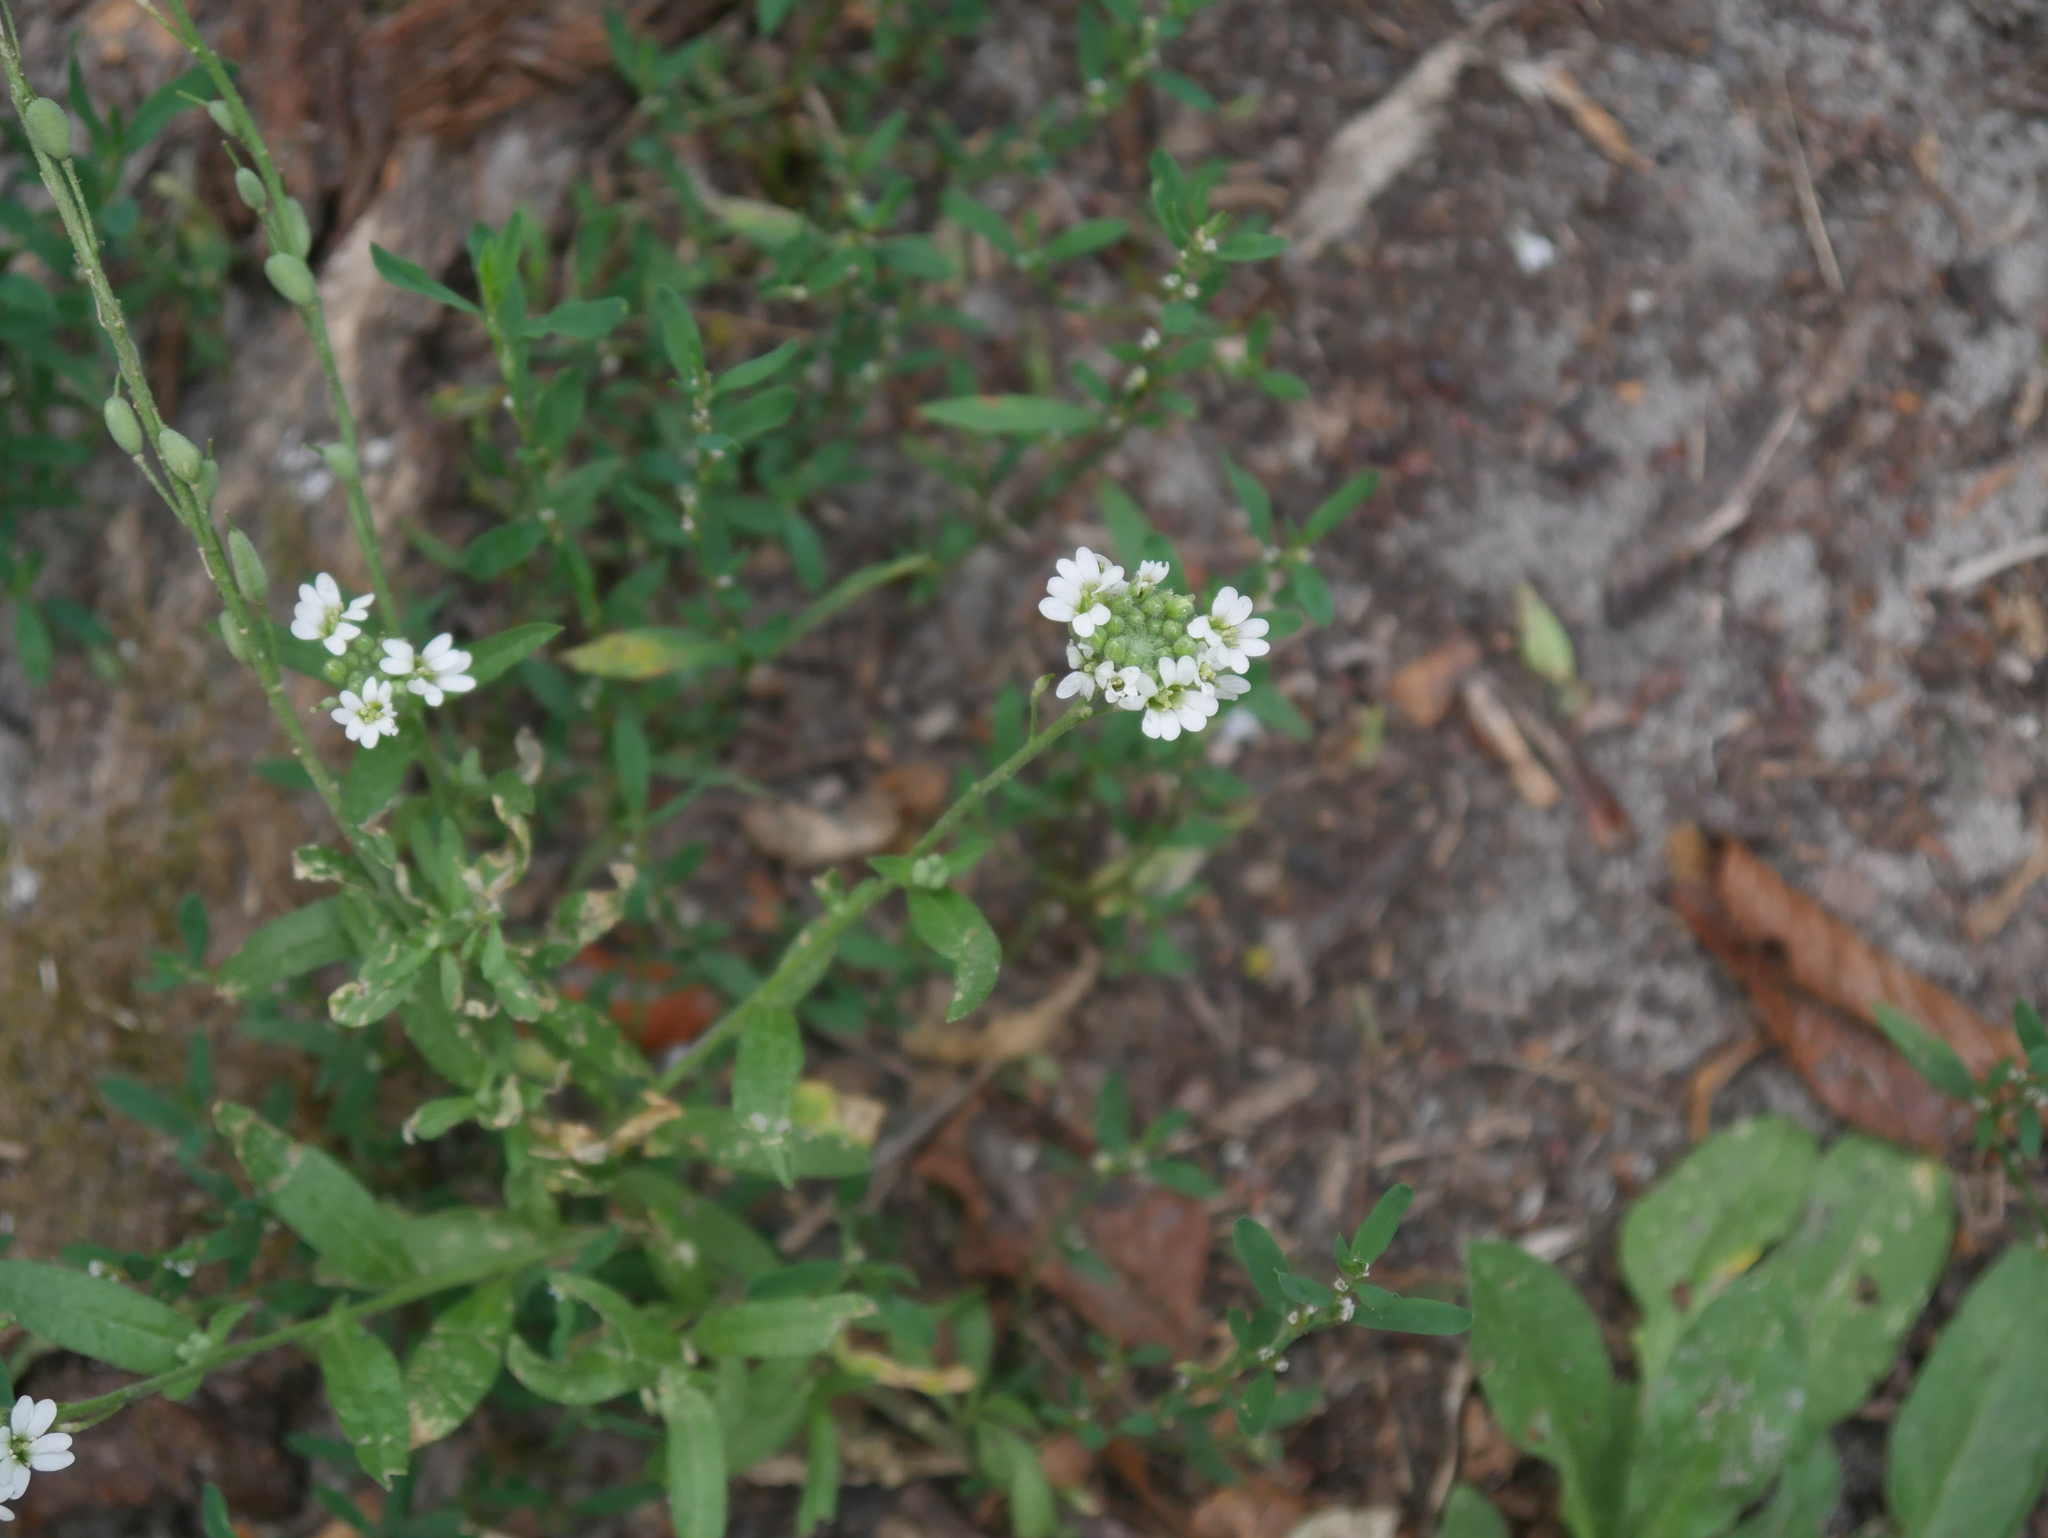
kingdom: Plantae
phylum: Tracheophyta
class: Magnoliopsida
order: Brassicales
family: Brassicaceae
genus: Berteroa
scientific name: Berteroa incana
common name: Hoary alison
